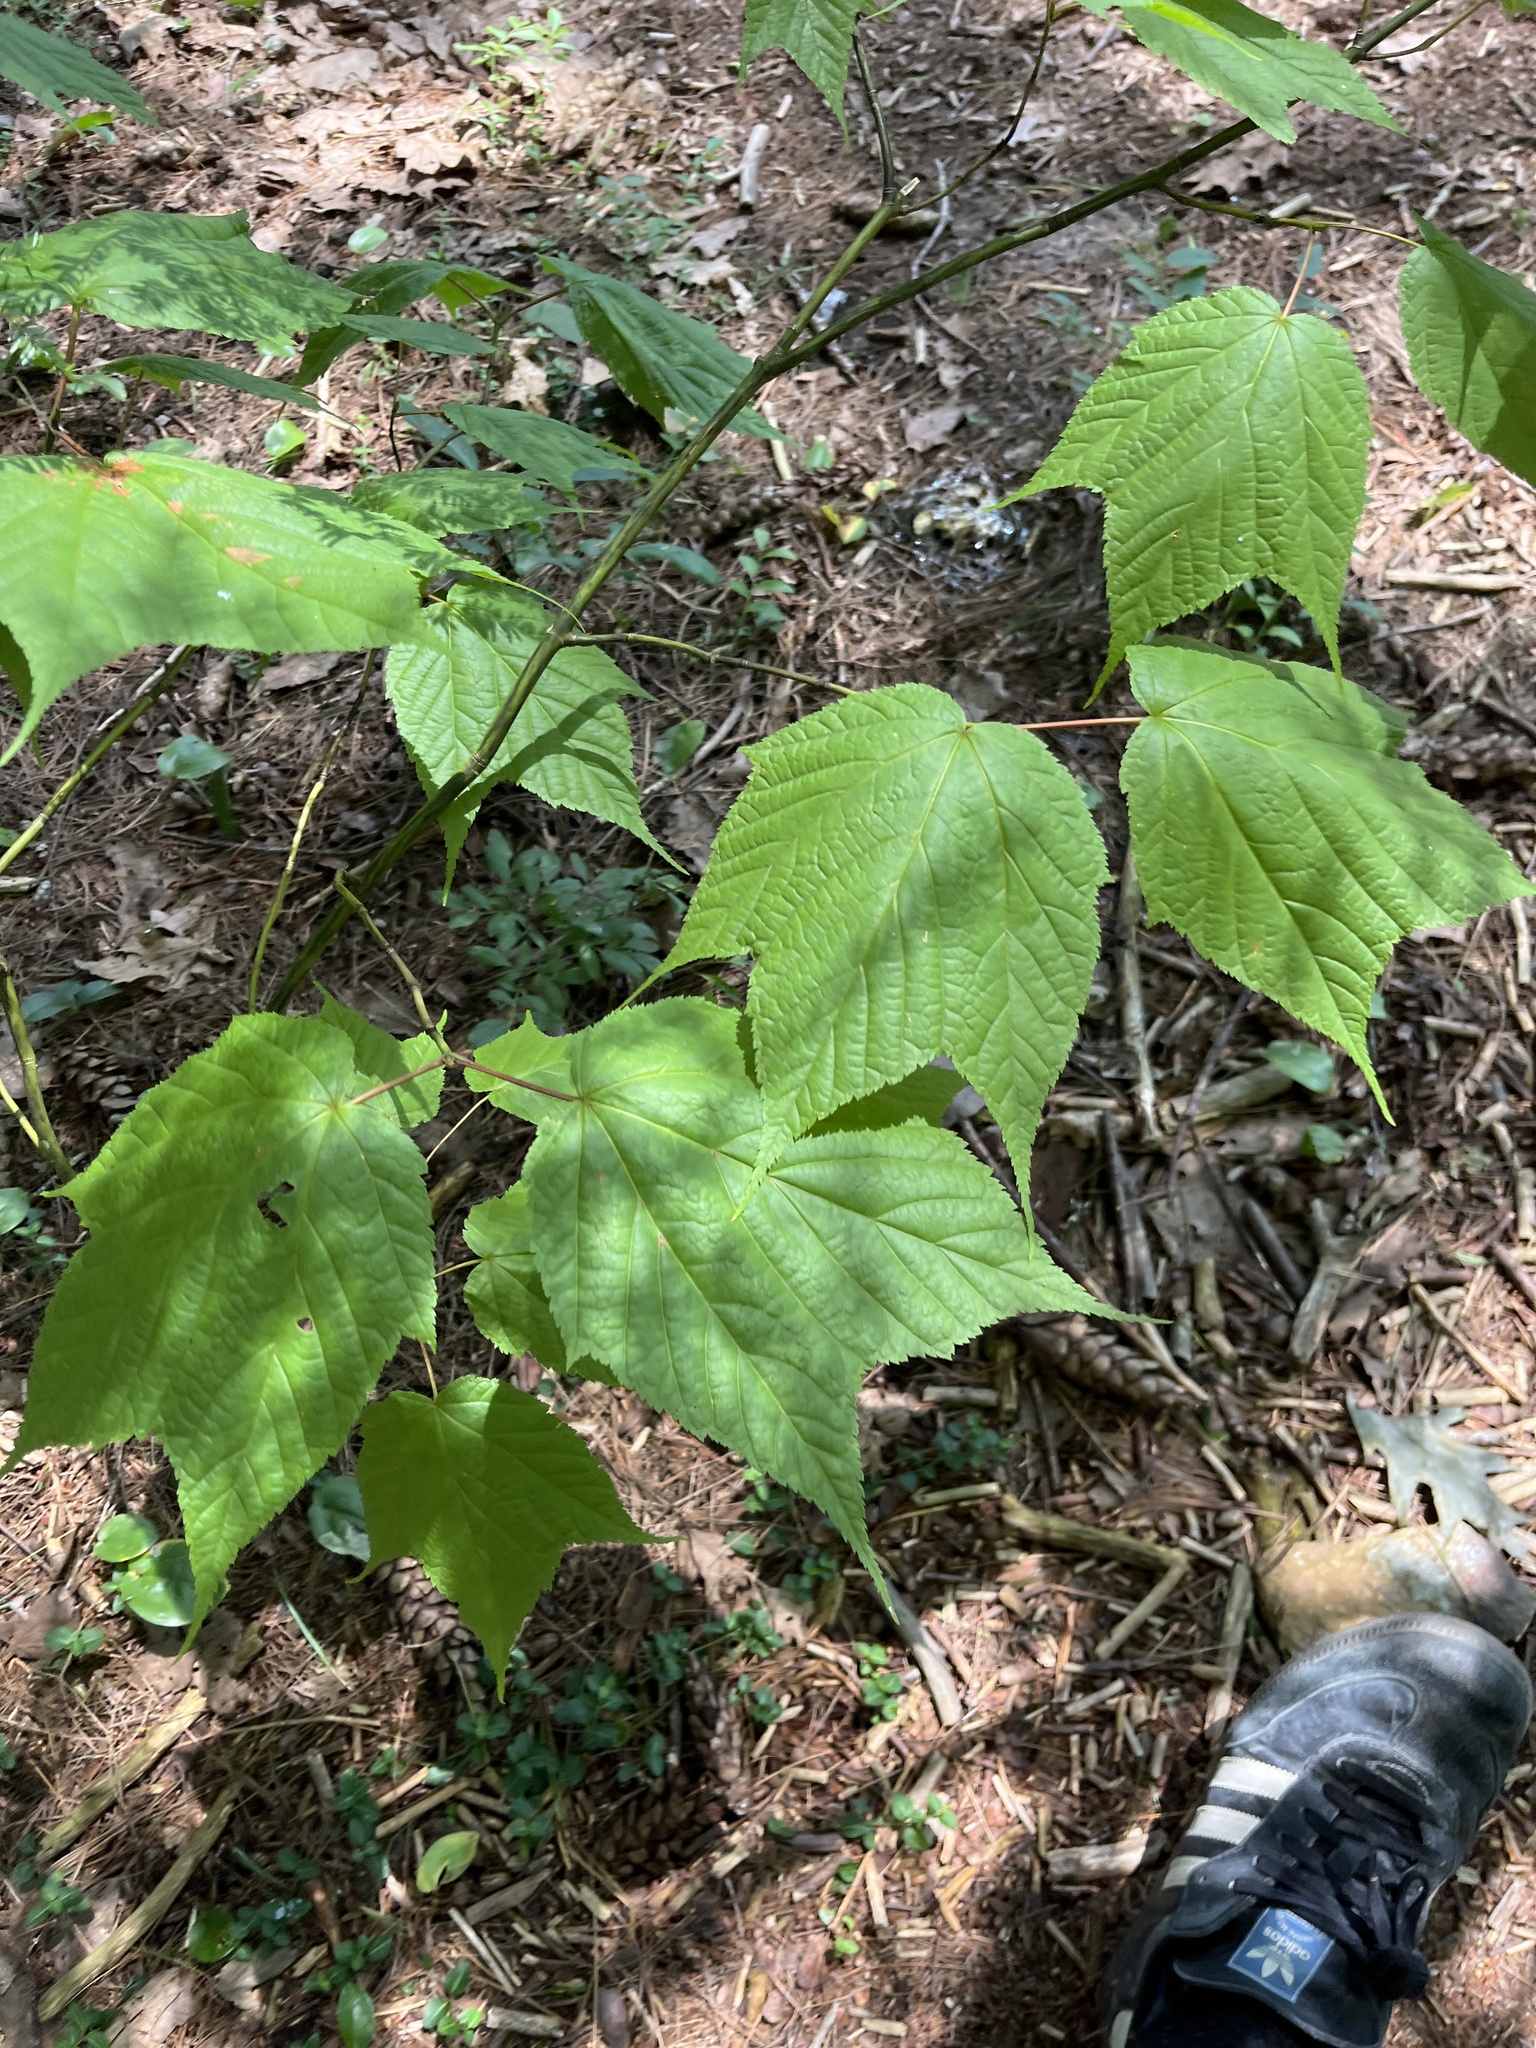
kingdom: Plantae
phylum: Tracheophyta
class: Magnoliopsida
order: Sapindales
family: Sapindaceae
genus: Acer
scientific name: Acer pensylvanicum
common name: Moosewood
